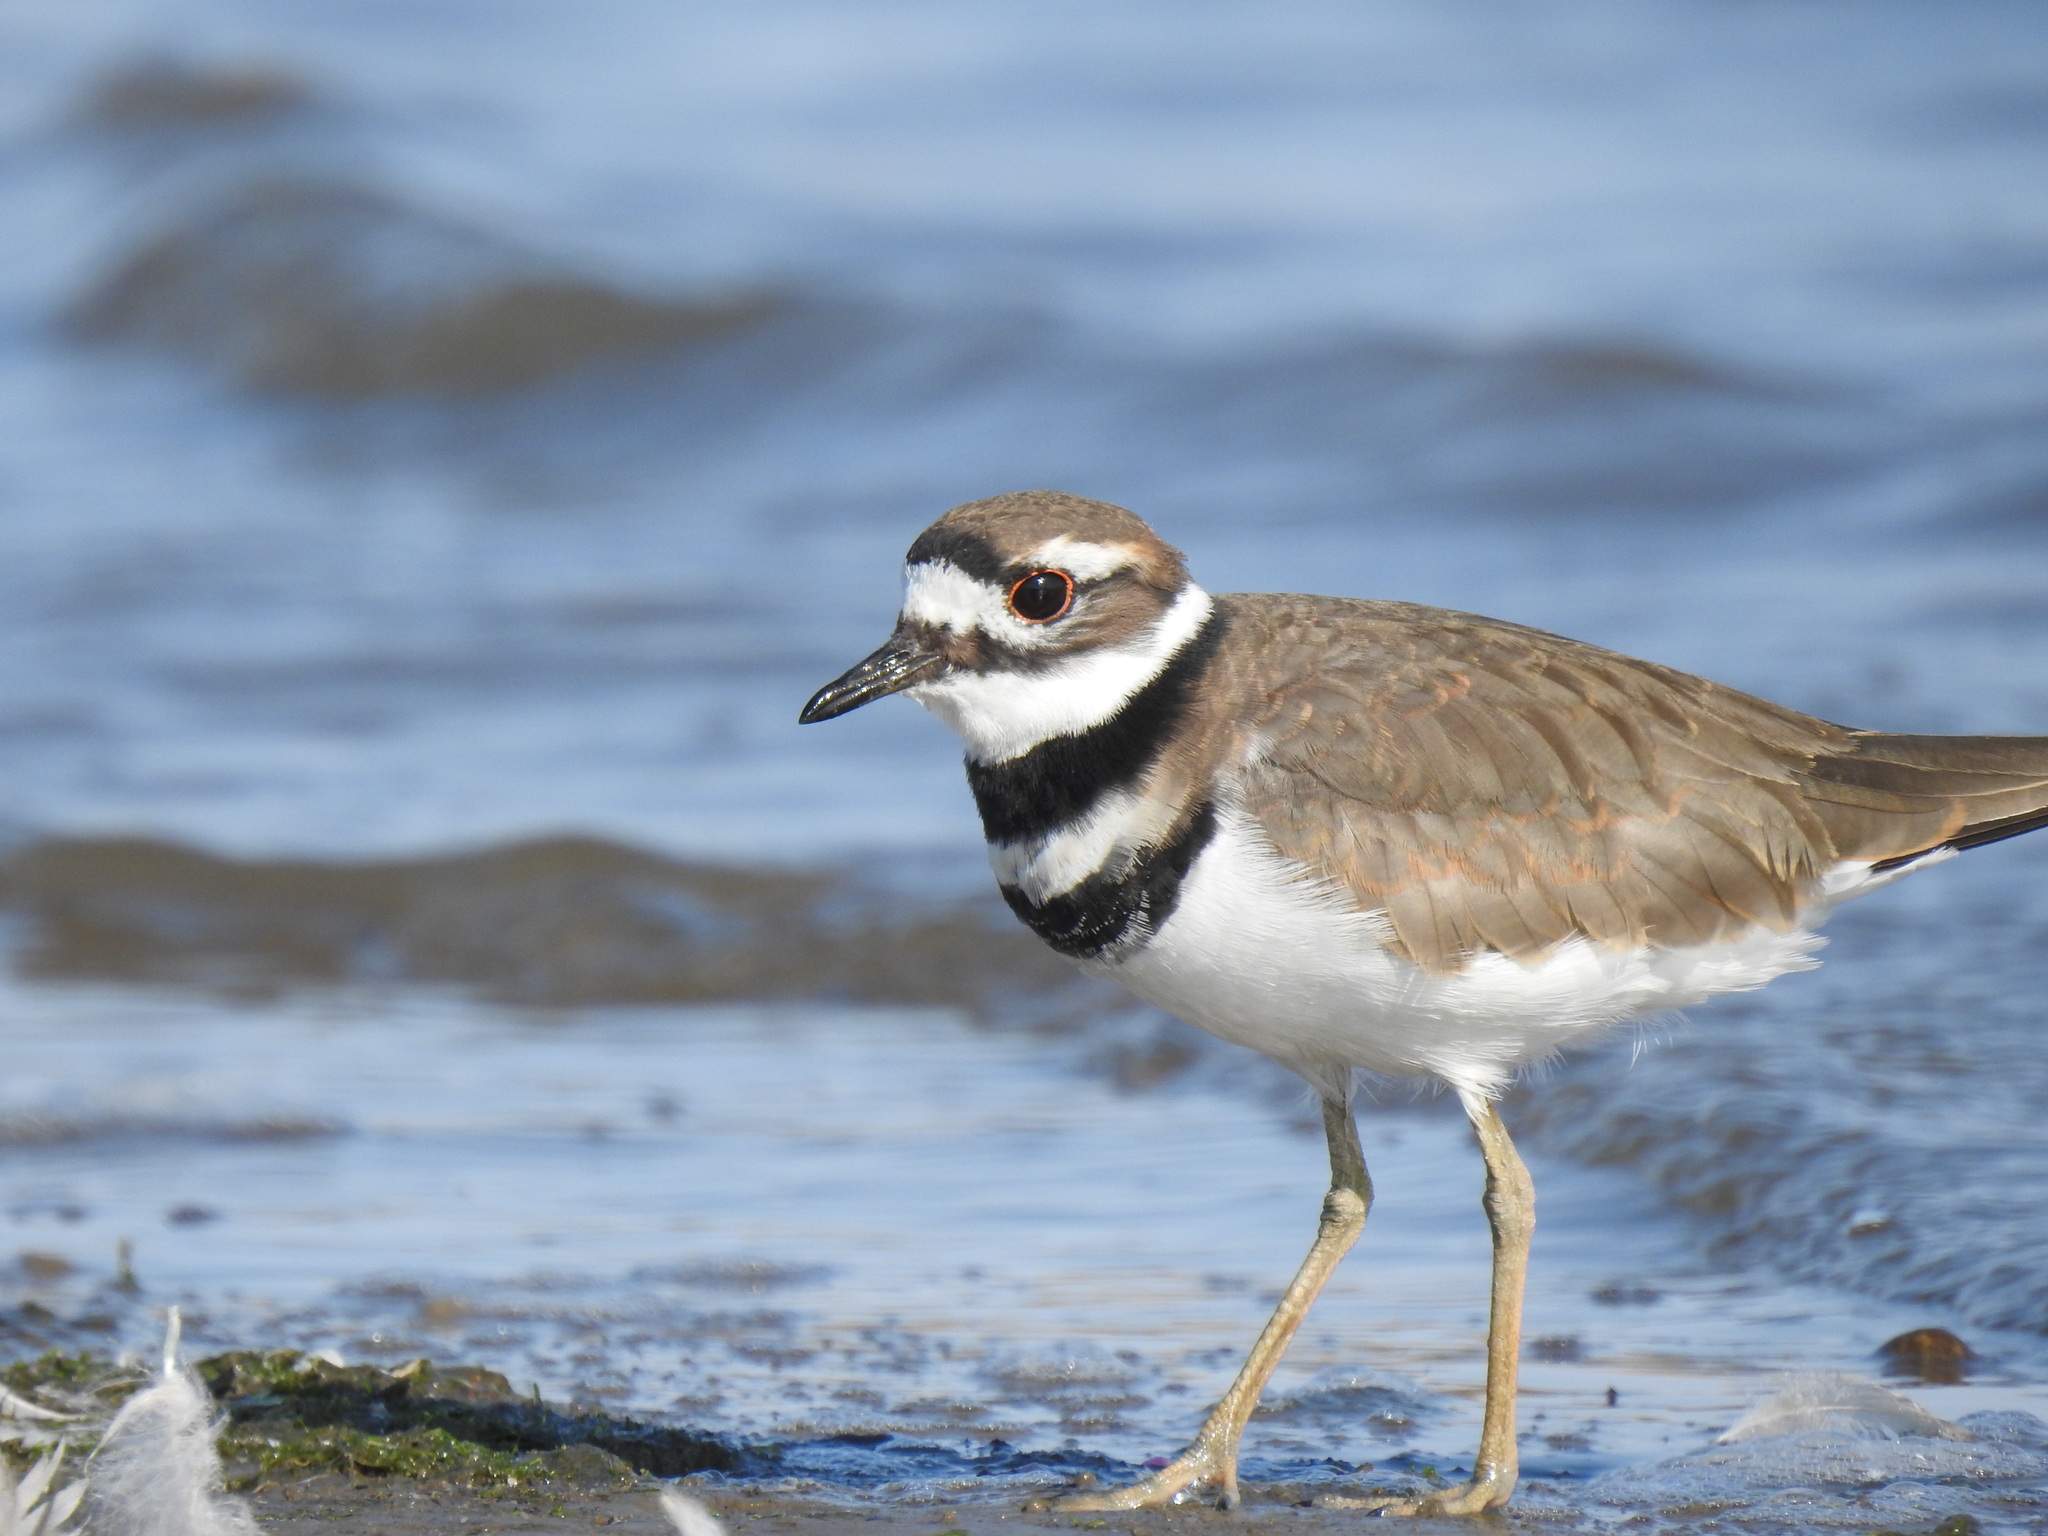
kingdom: Animalia
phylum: Chordata
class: Aves
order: Charadriiformes
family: Charadriidae
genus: Charadrius
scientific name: Charadrius vociferus
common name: Killdeer
